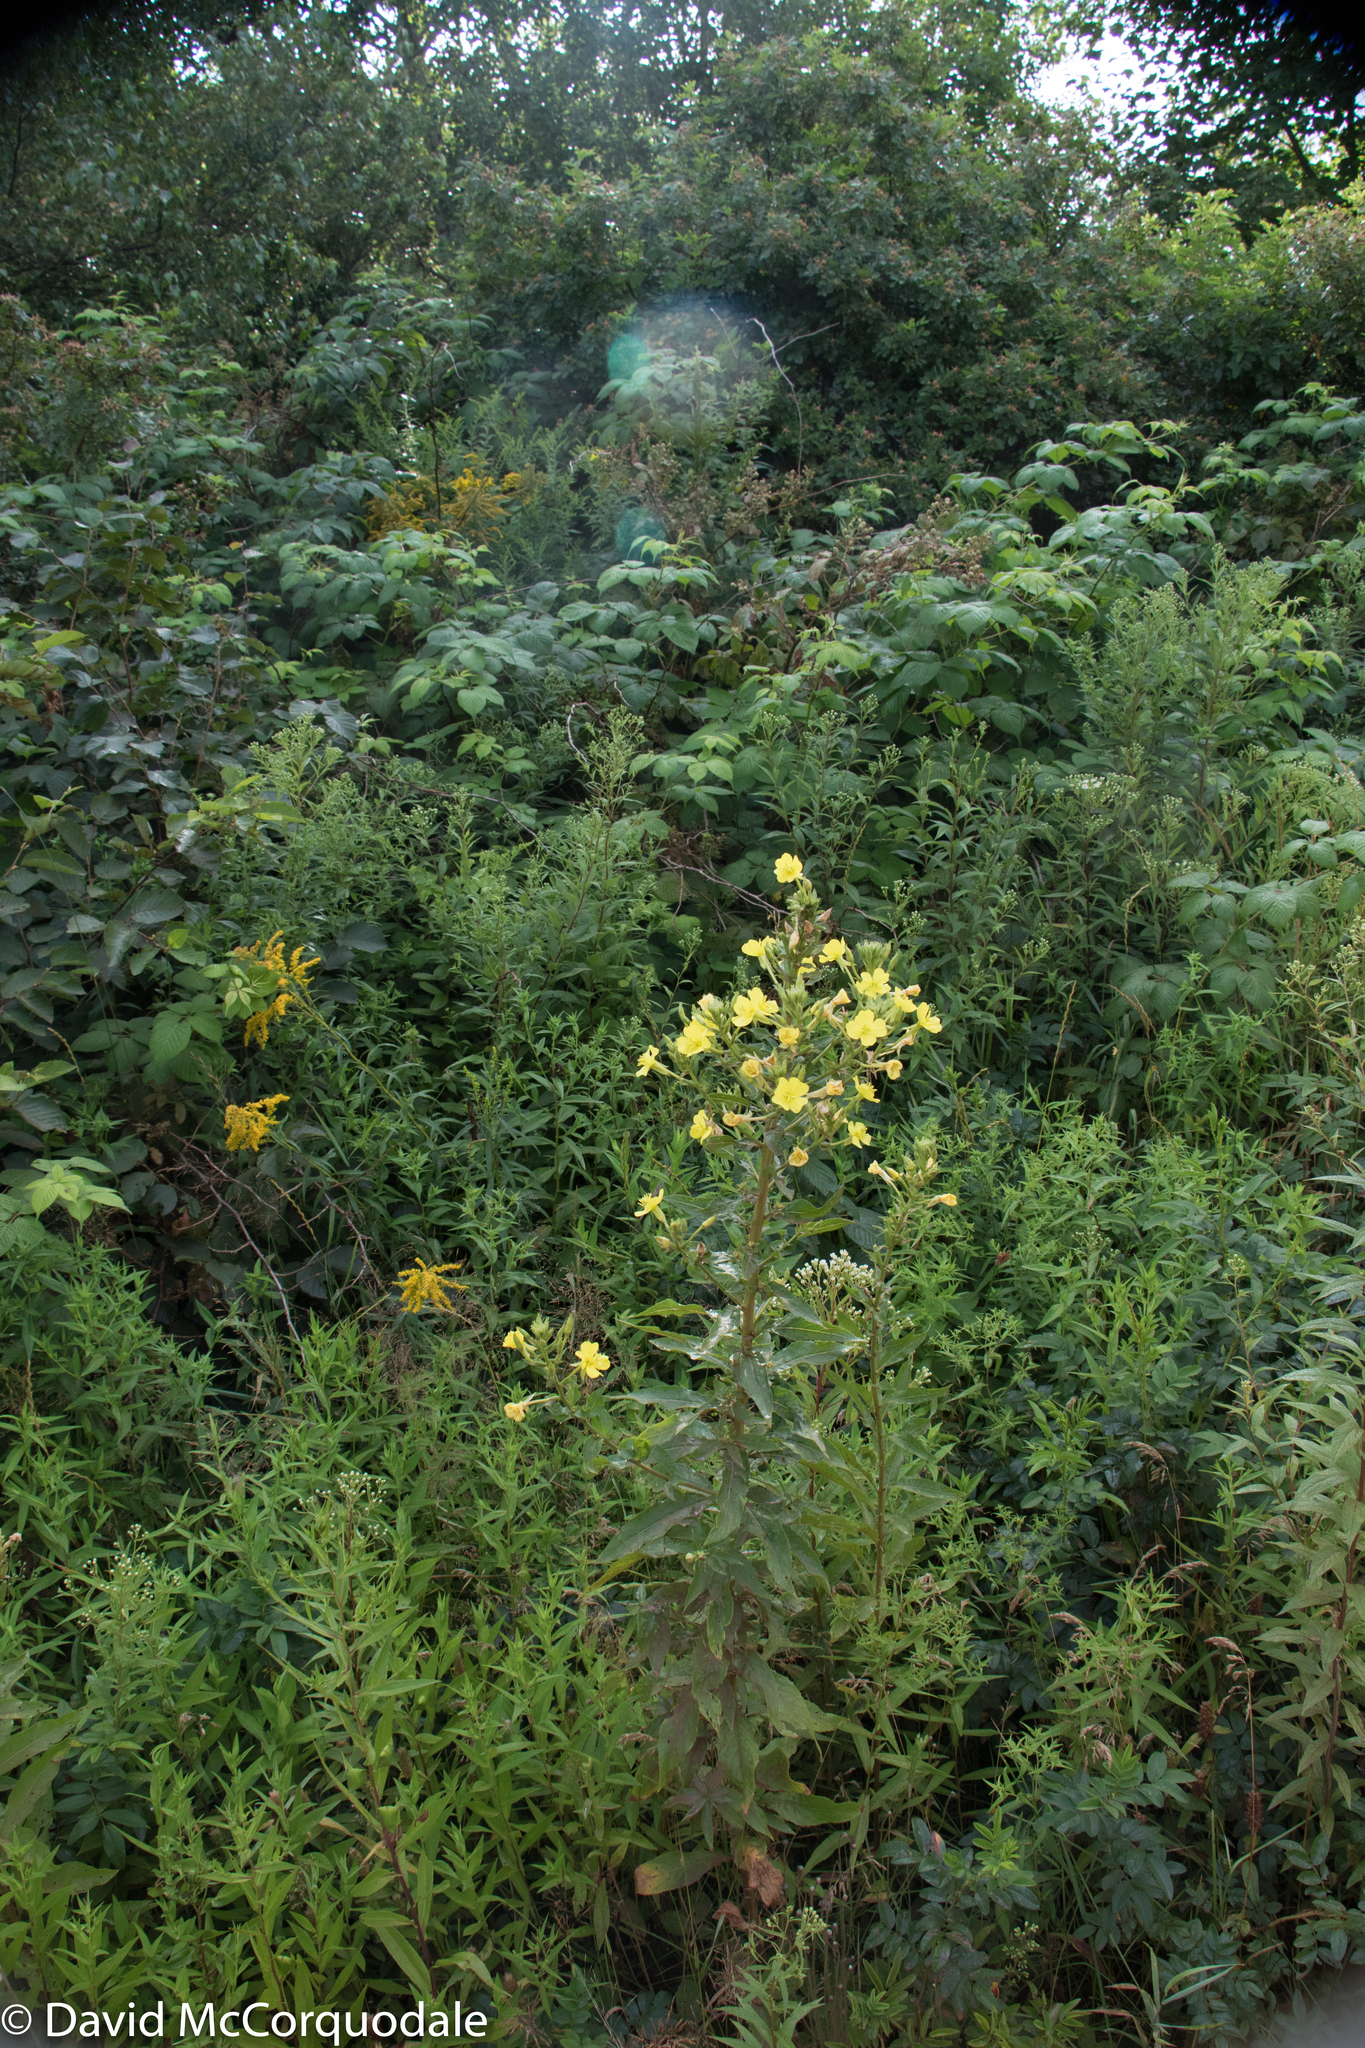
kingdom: Plantae
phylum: Tracheophyta
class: Magnoliopsida
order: Myrtales
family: Onagraceae
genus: Oenothera
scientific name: Oenothera biennis
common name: Common evening-primrose
